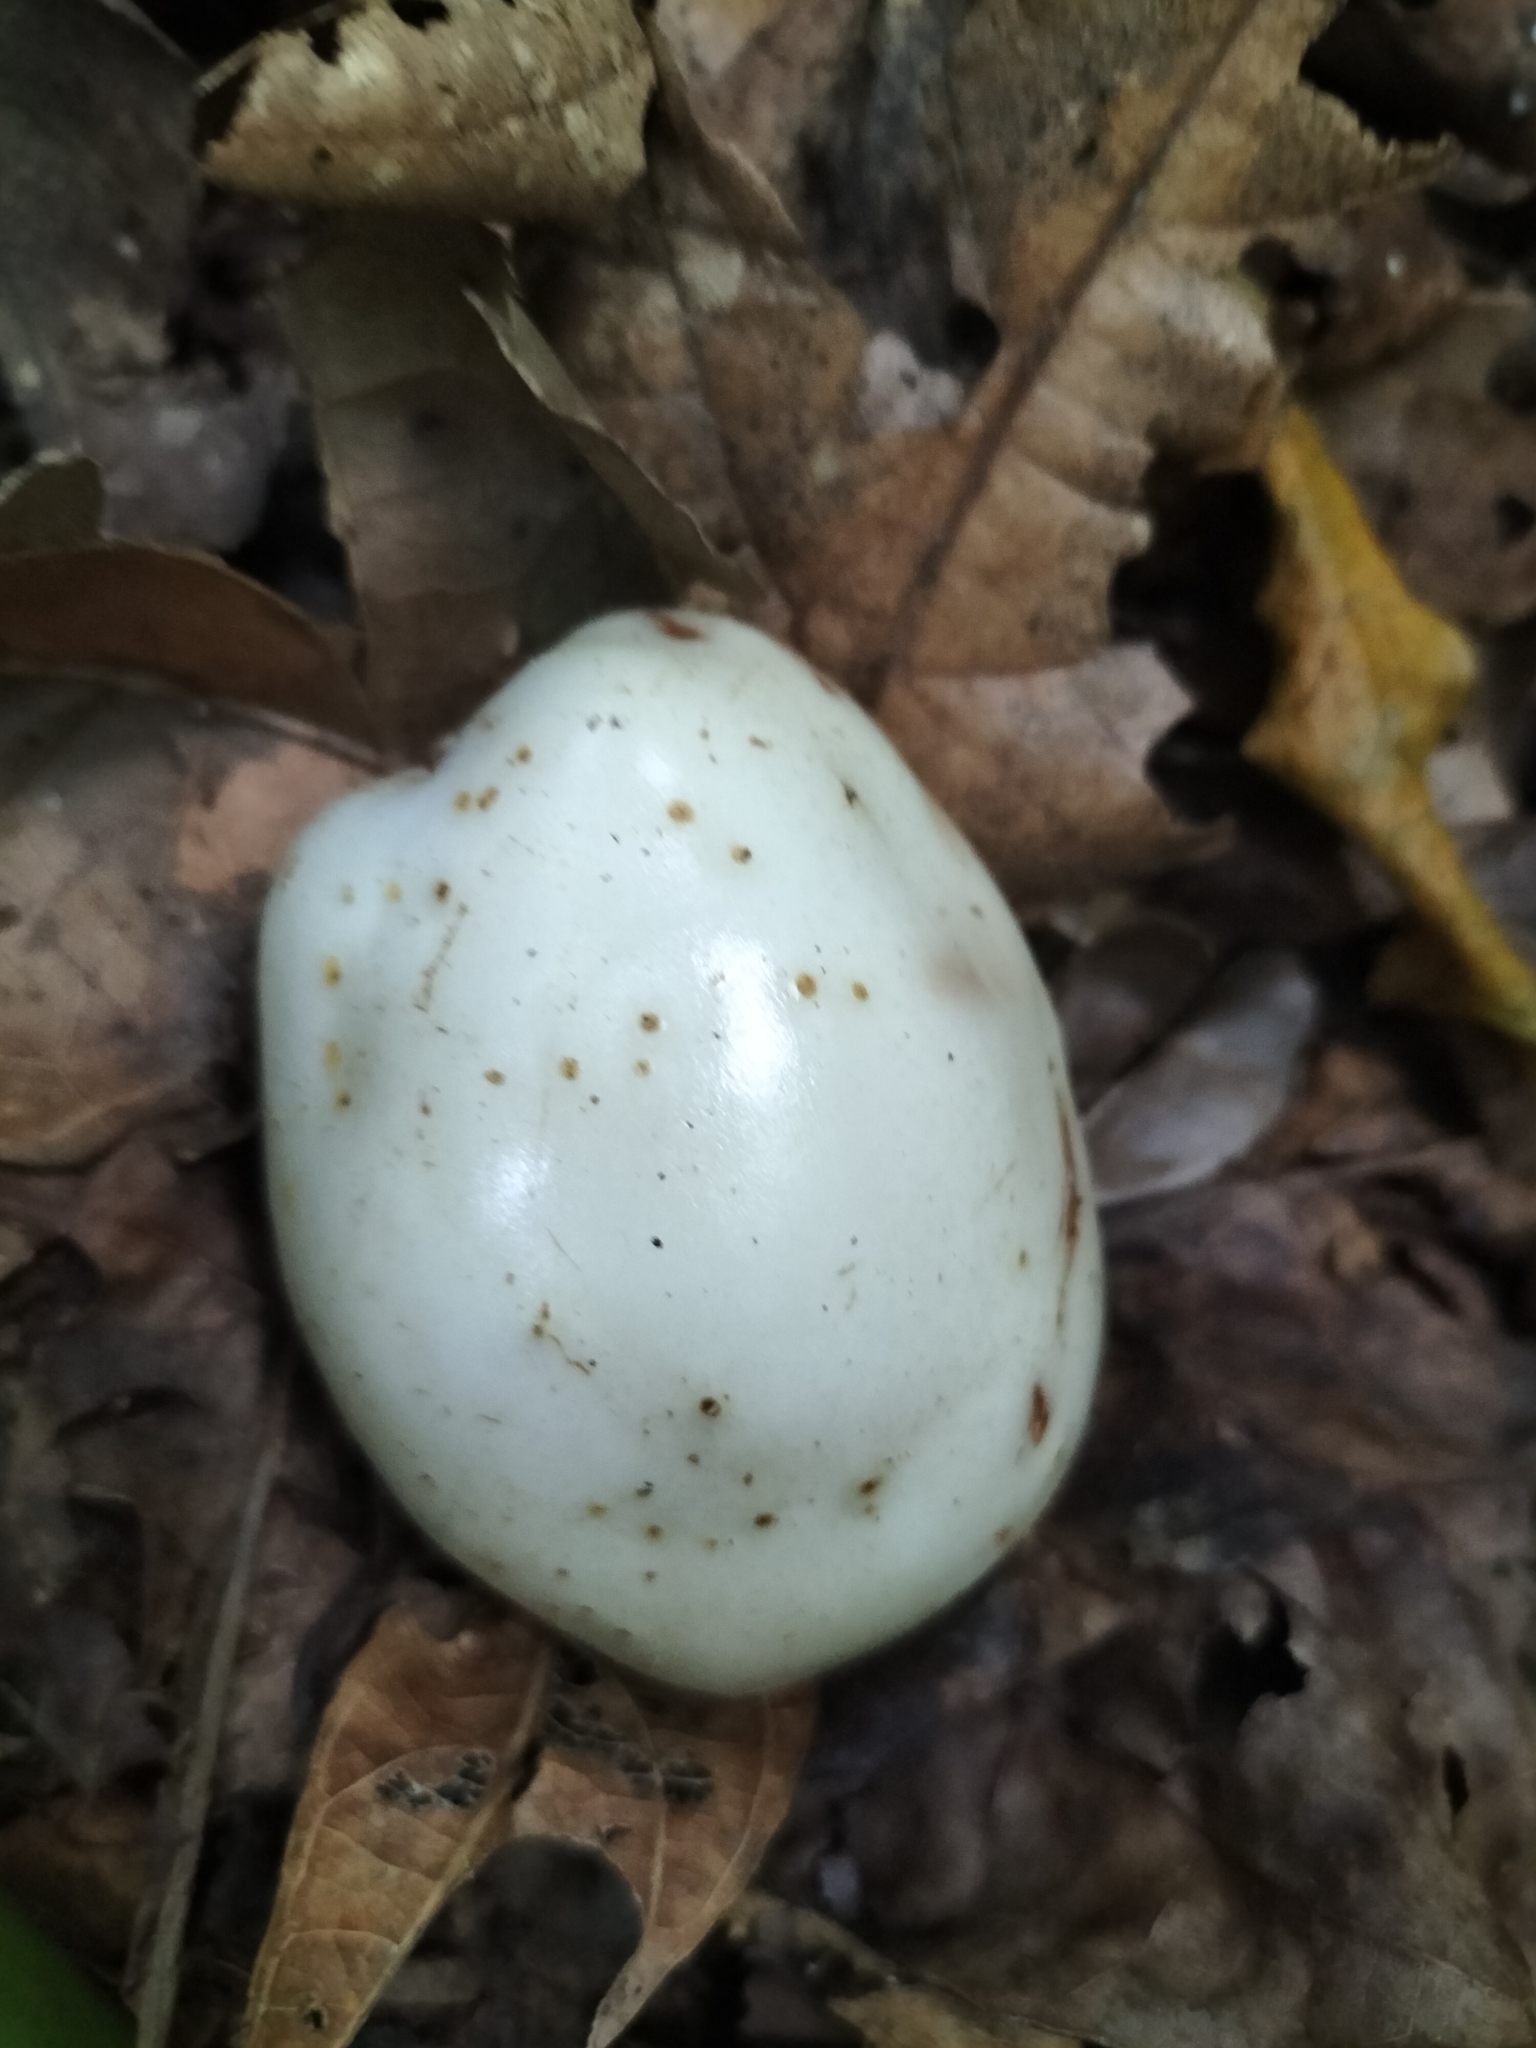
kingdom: Plantae
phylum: Tracheophyta
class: Magnoliopsida
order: Lamiales
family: Lamiaceae
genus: Oxera
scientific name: Oxera splendida
